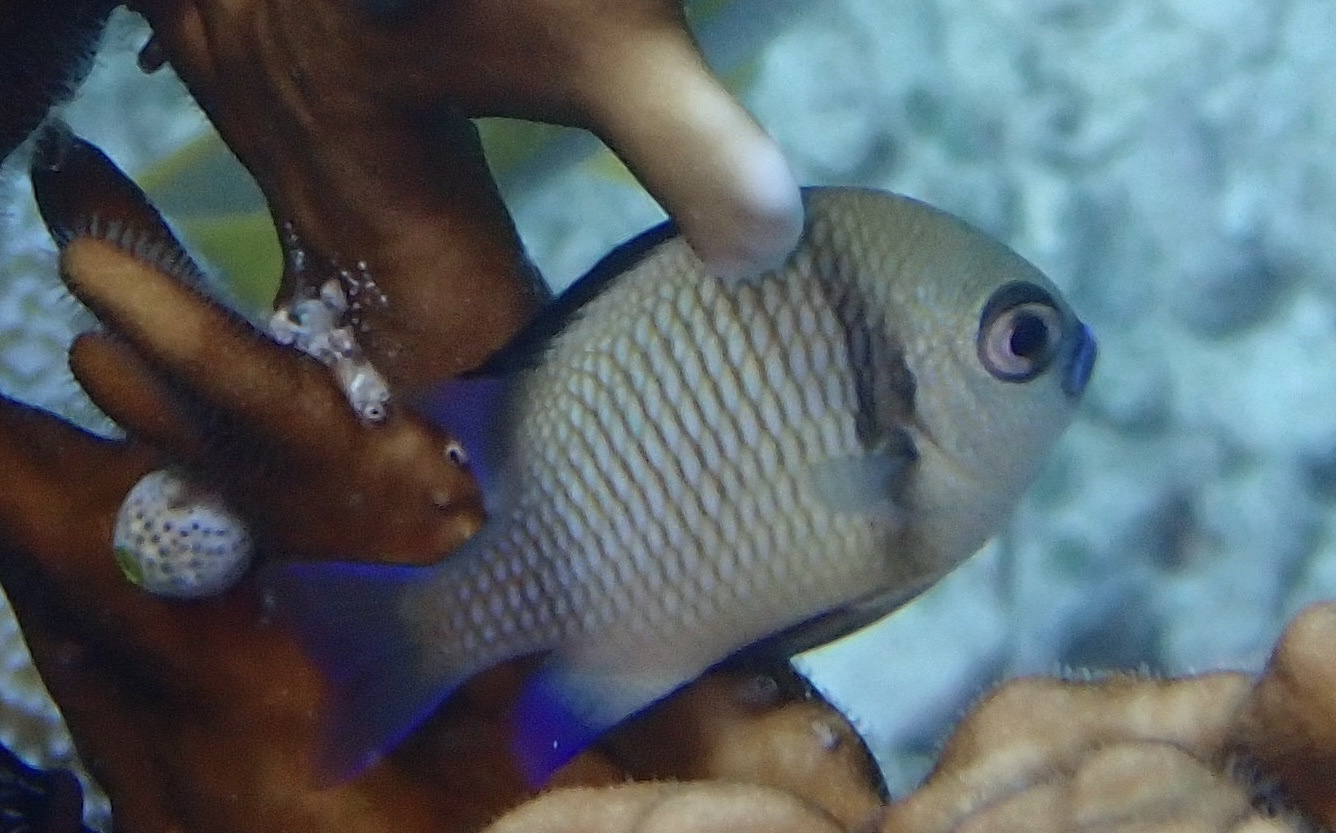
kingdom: Animalia
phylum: Chordata
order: Perciformes
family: Pomacentridae
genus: Dascyllus
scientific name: Dascyllus reticulatus
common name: Reticulated dascyllus
